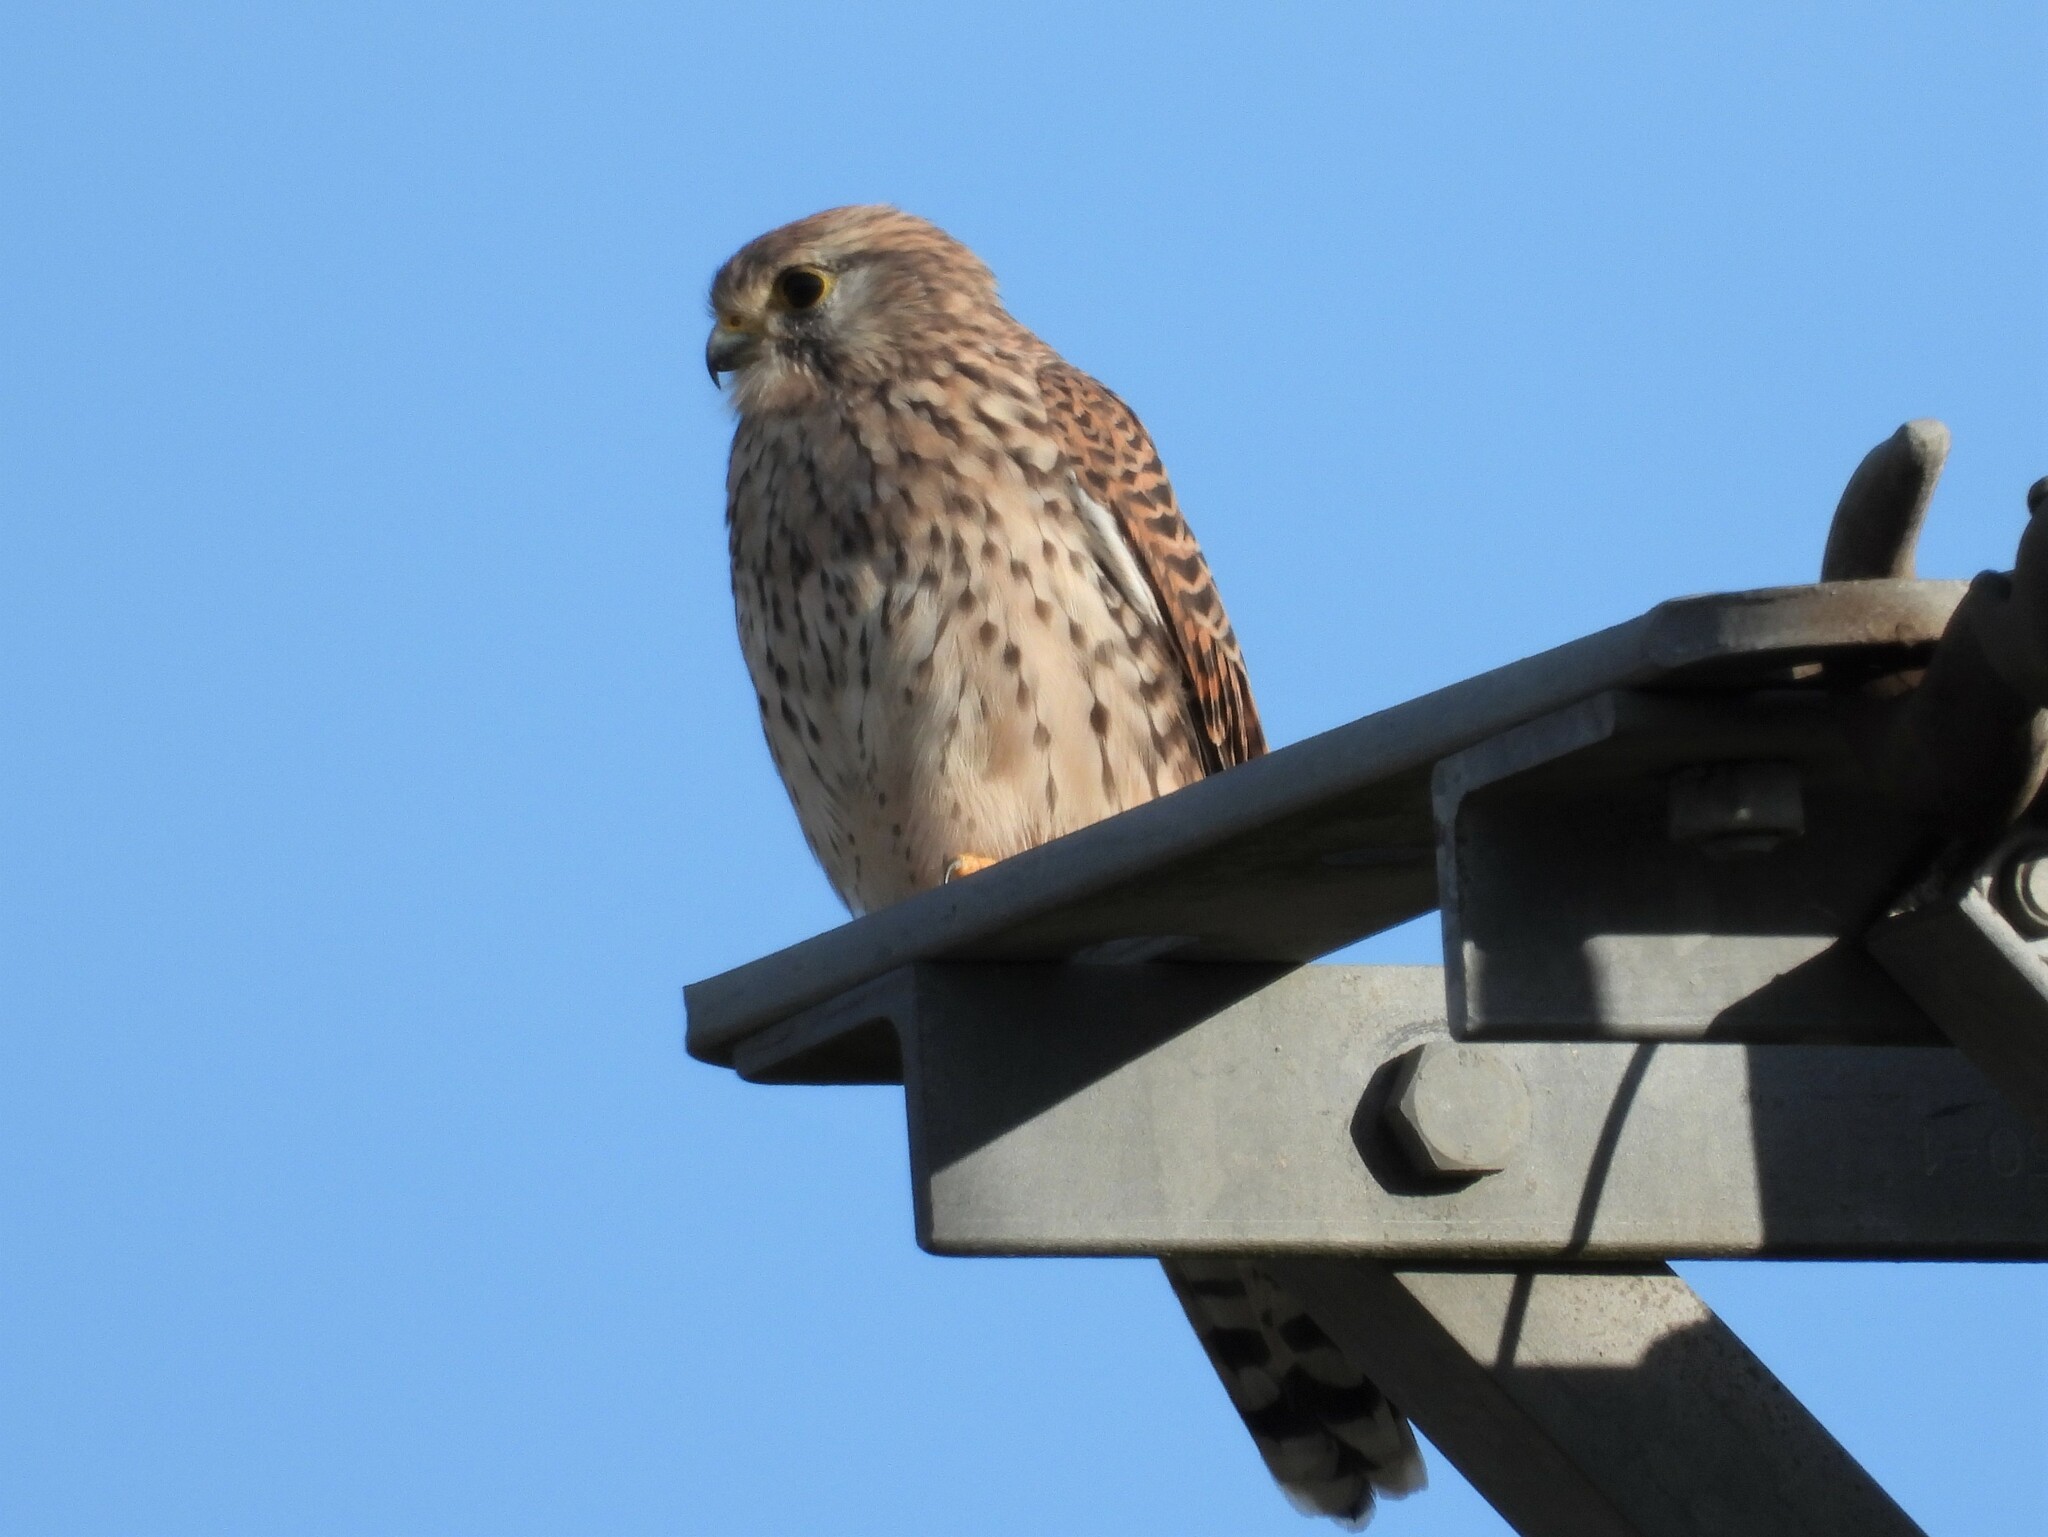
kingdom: Animalia
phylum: Chordata
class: Aves
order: Falconiformes
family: Falconidae
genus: Falco
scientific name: Falco tinnunculus
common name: Common kestrel
